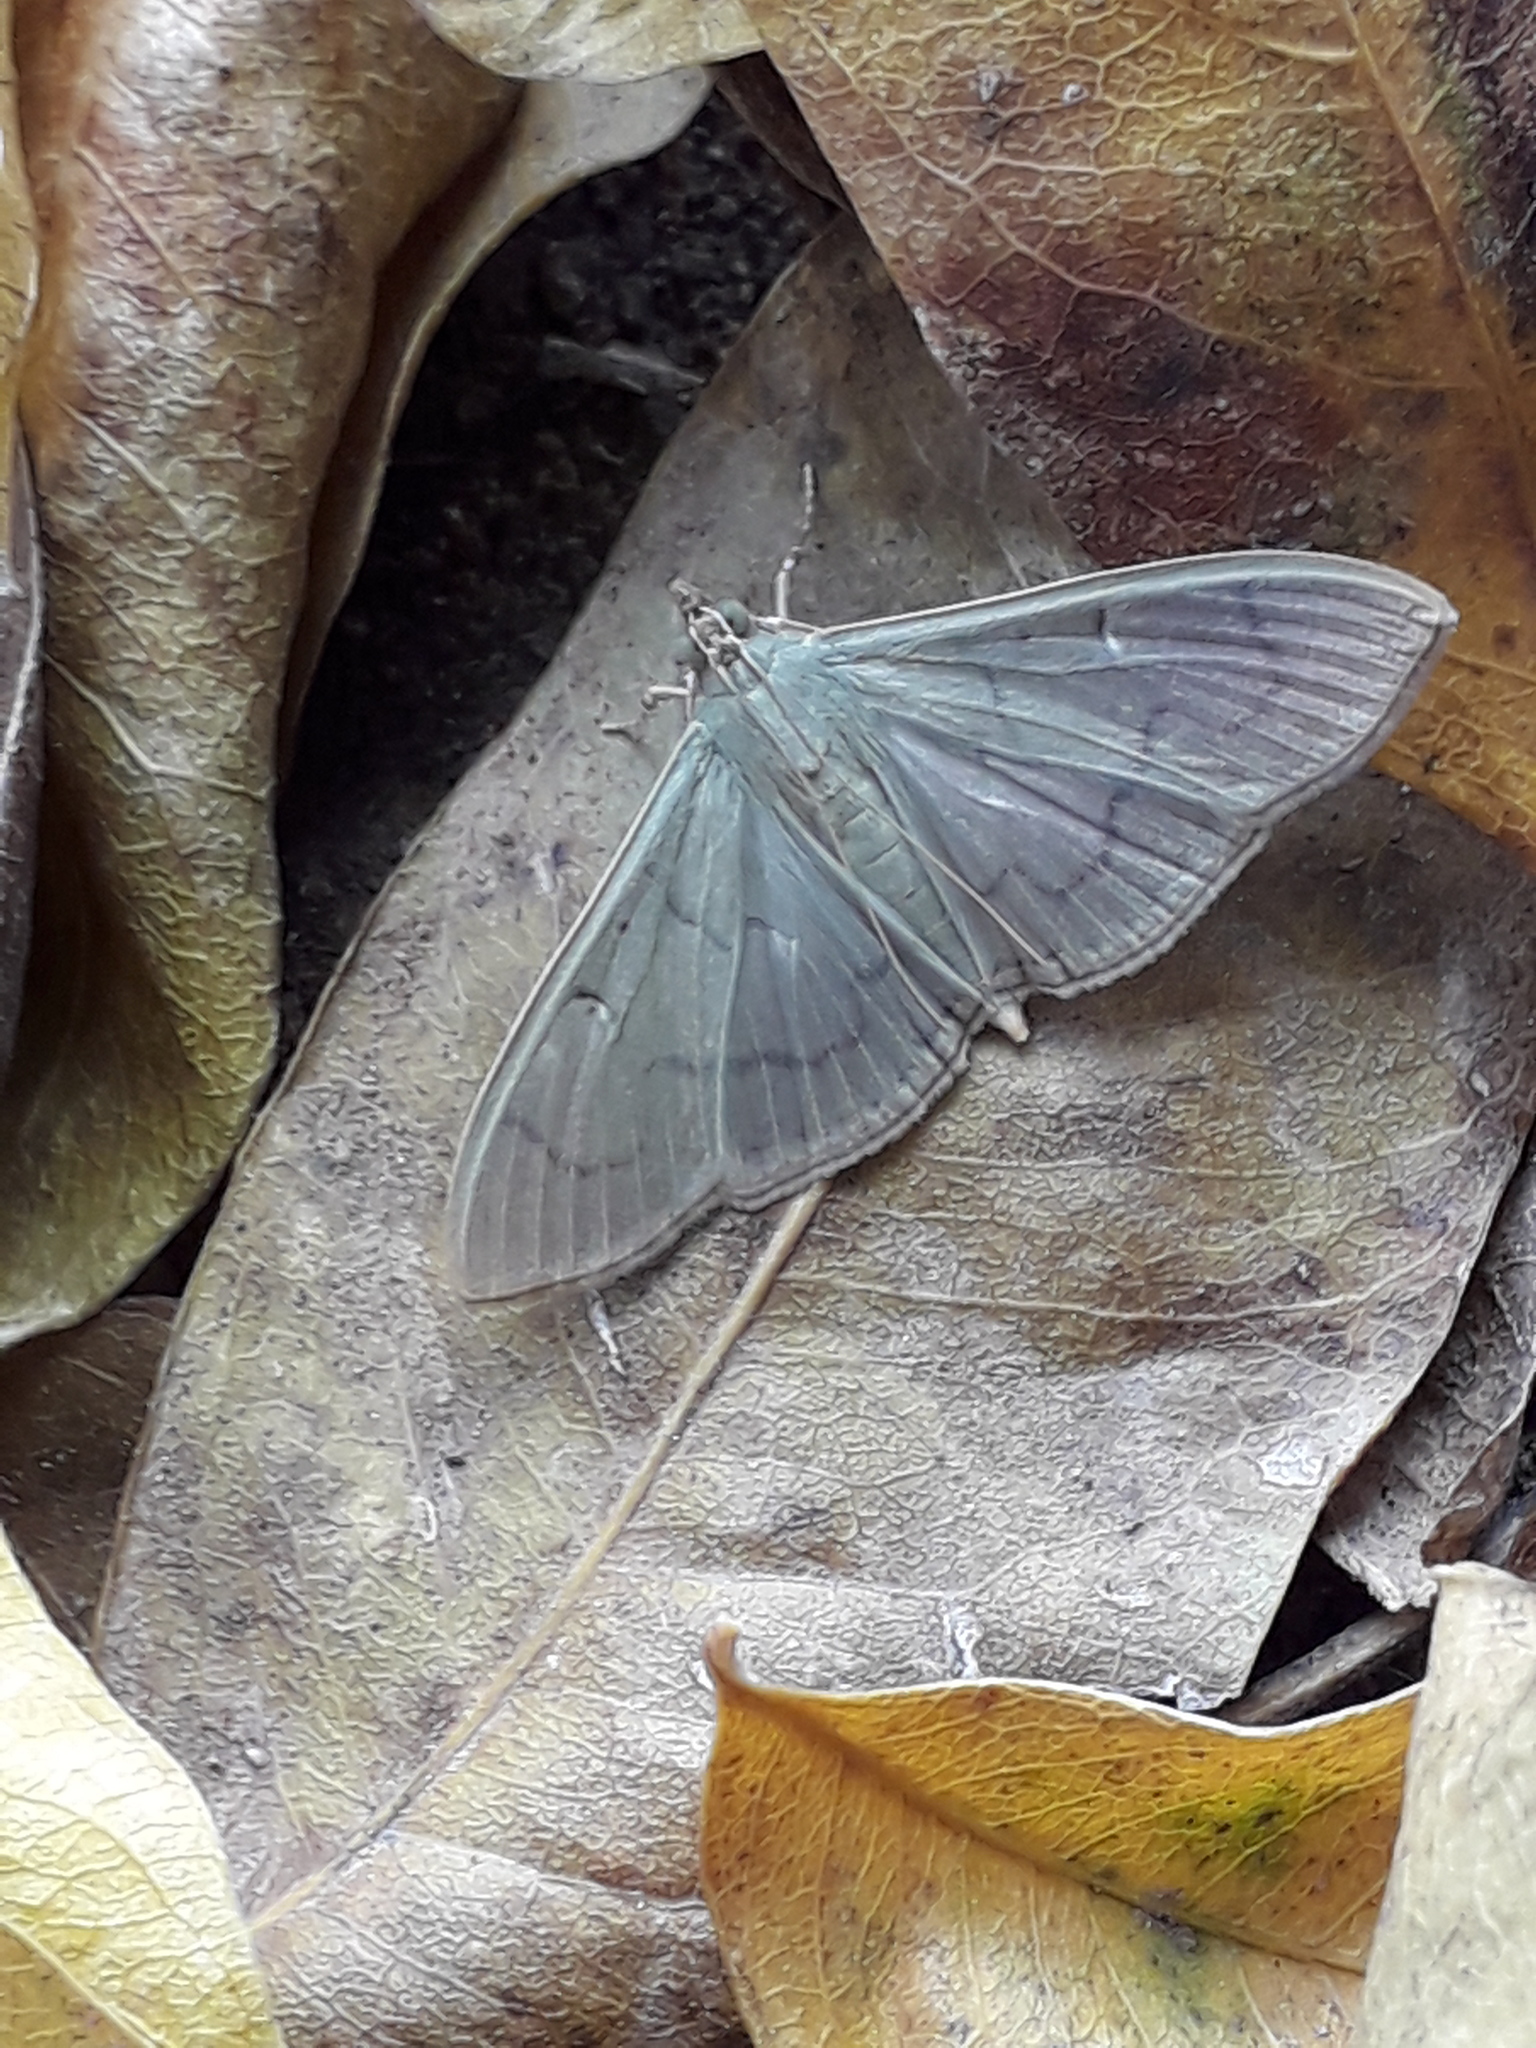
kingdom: Animalia
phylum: Arthropoda
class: Insecta
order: Lepidoptera
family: Crambidae
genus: Condylorrhiza
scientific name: Condylorrhiza vestigialis
